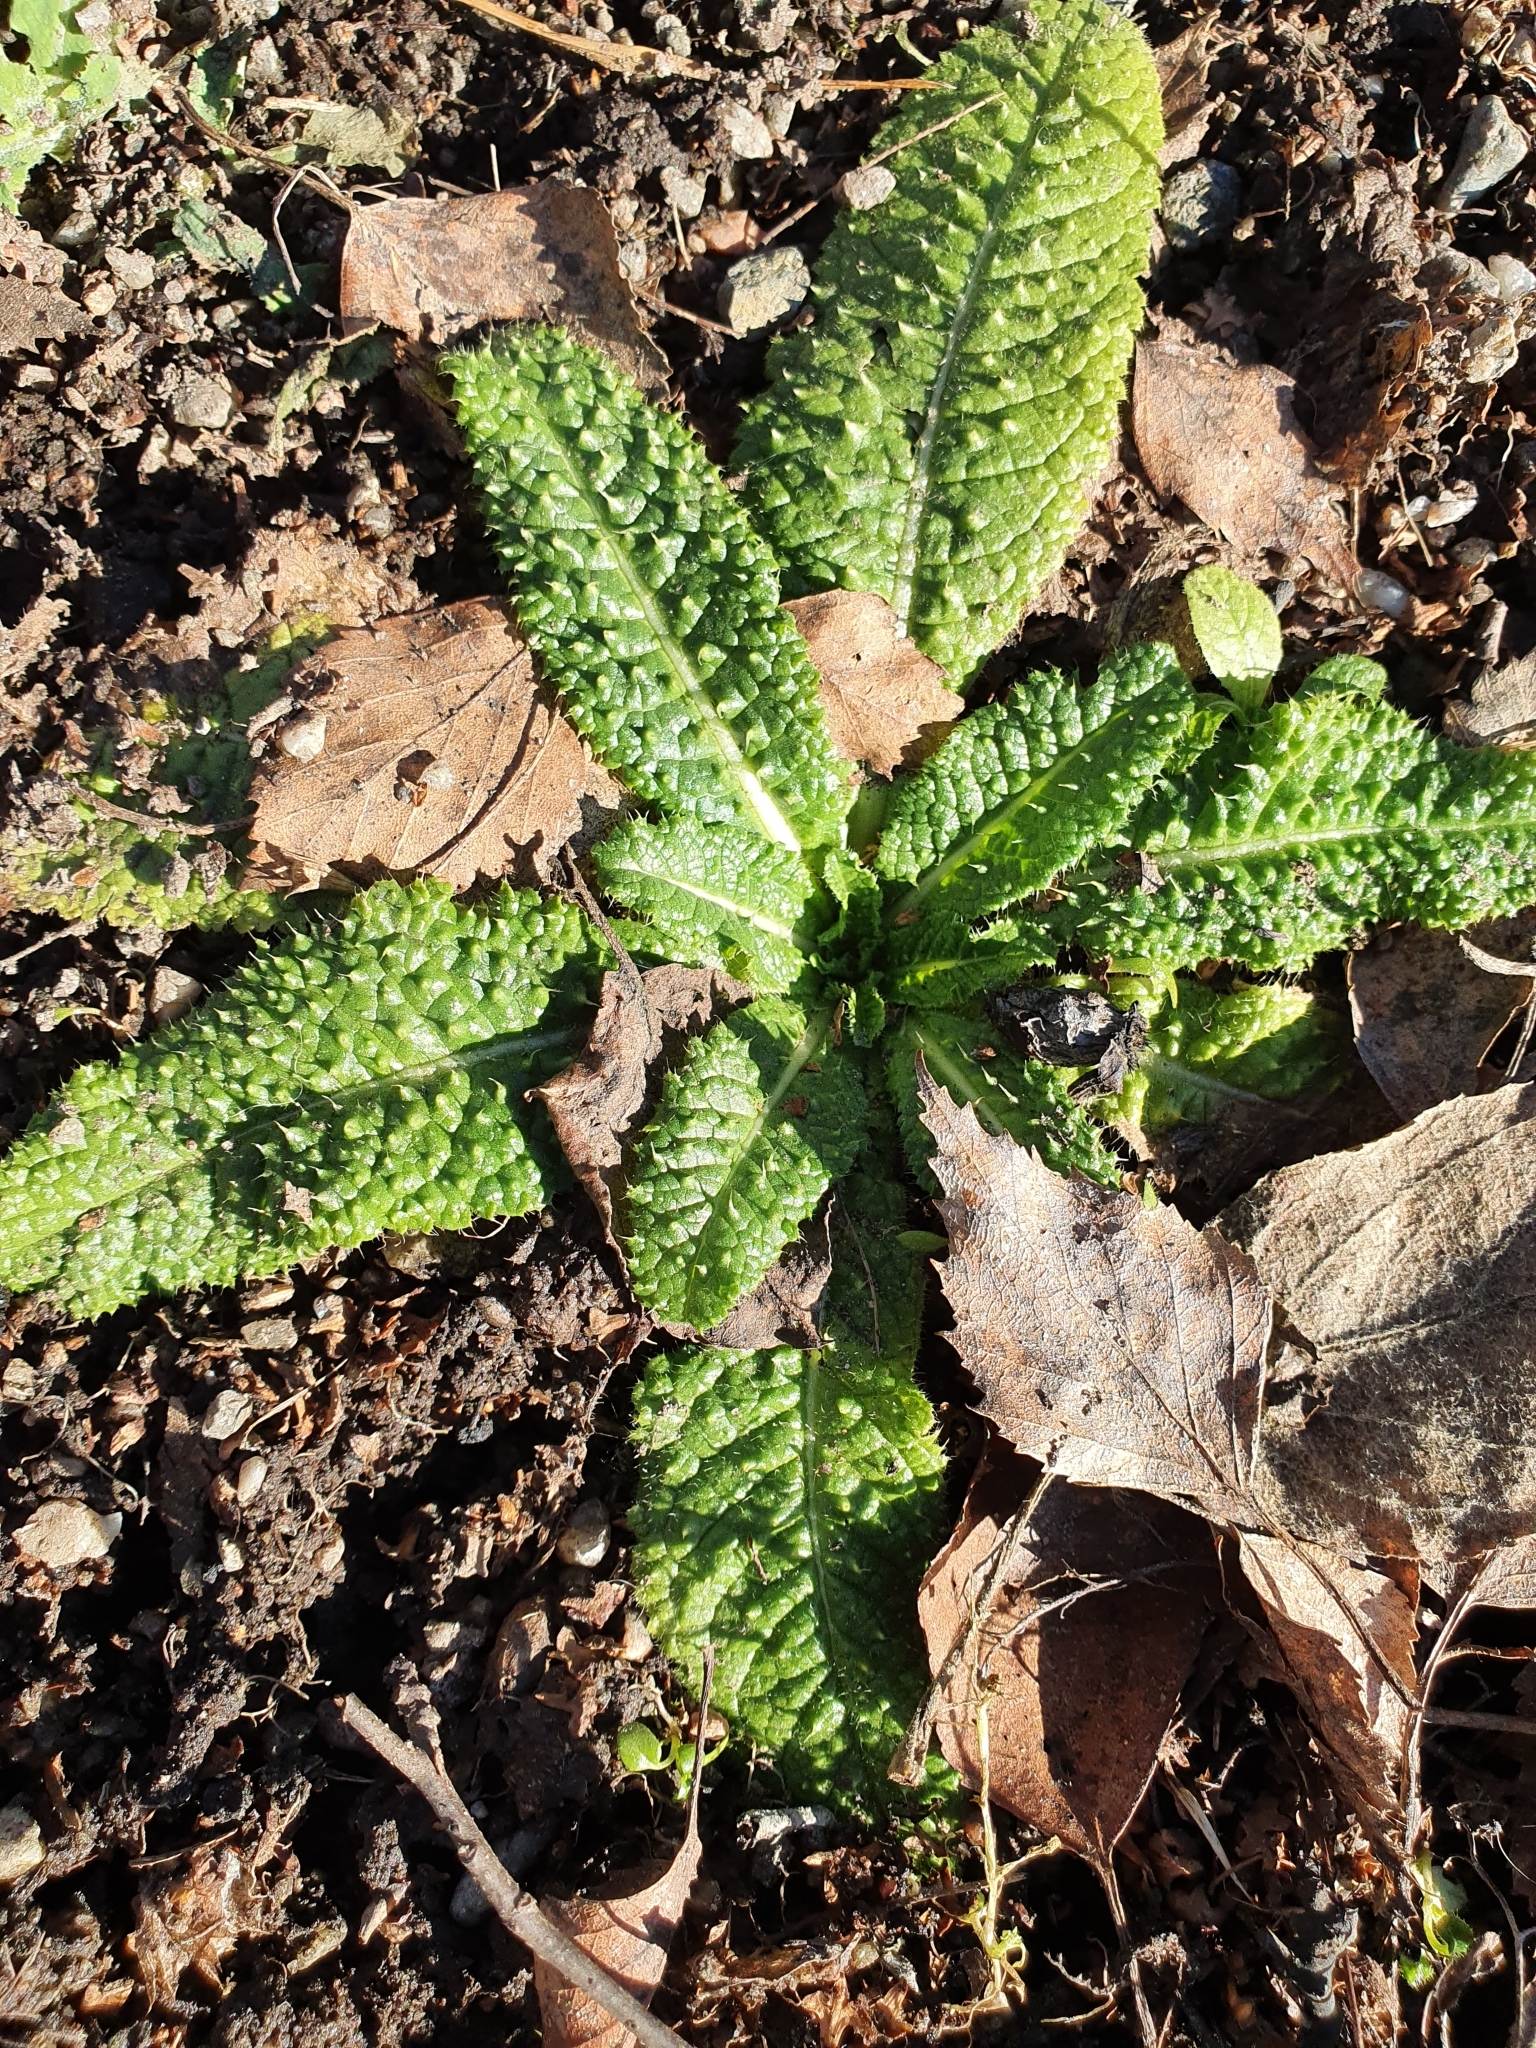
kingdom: Plantae
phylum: Tracheophyta
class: Magnoliopsida
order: Dipsacales
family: Caprifoliaceae
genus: Dipsacus
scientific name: Dipsacus fullonum
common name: Teasel
